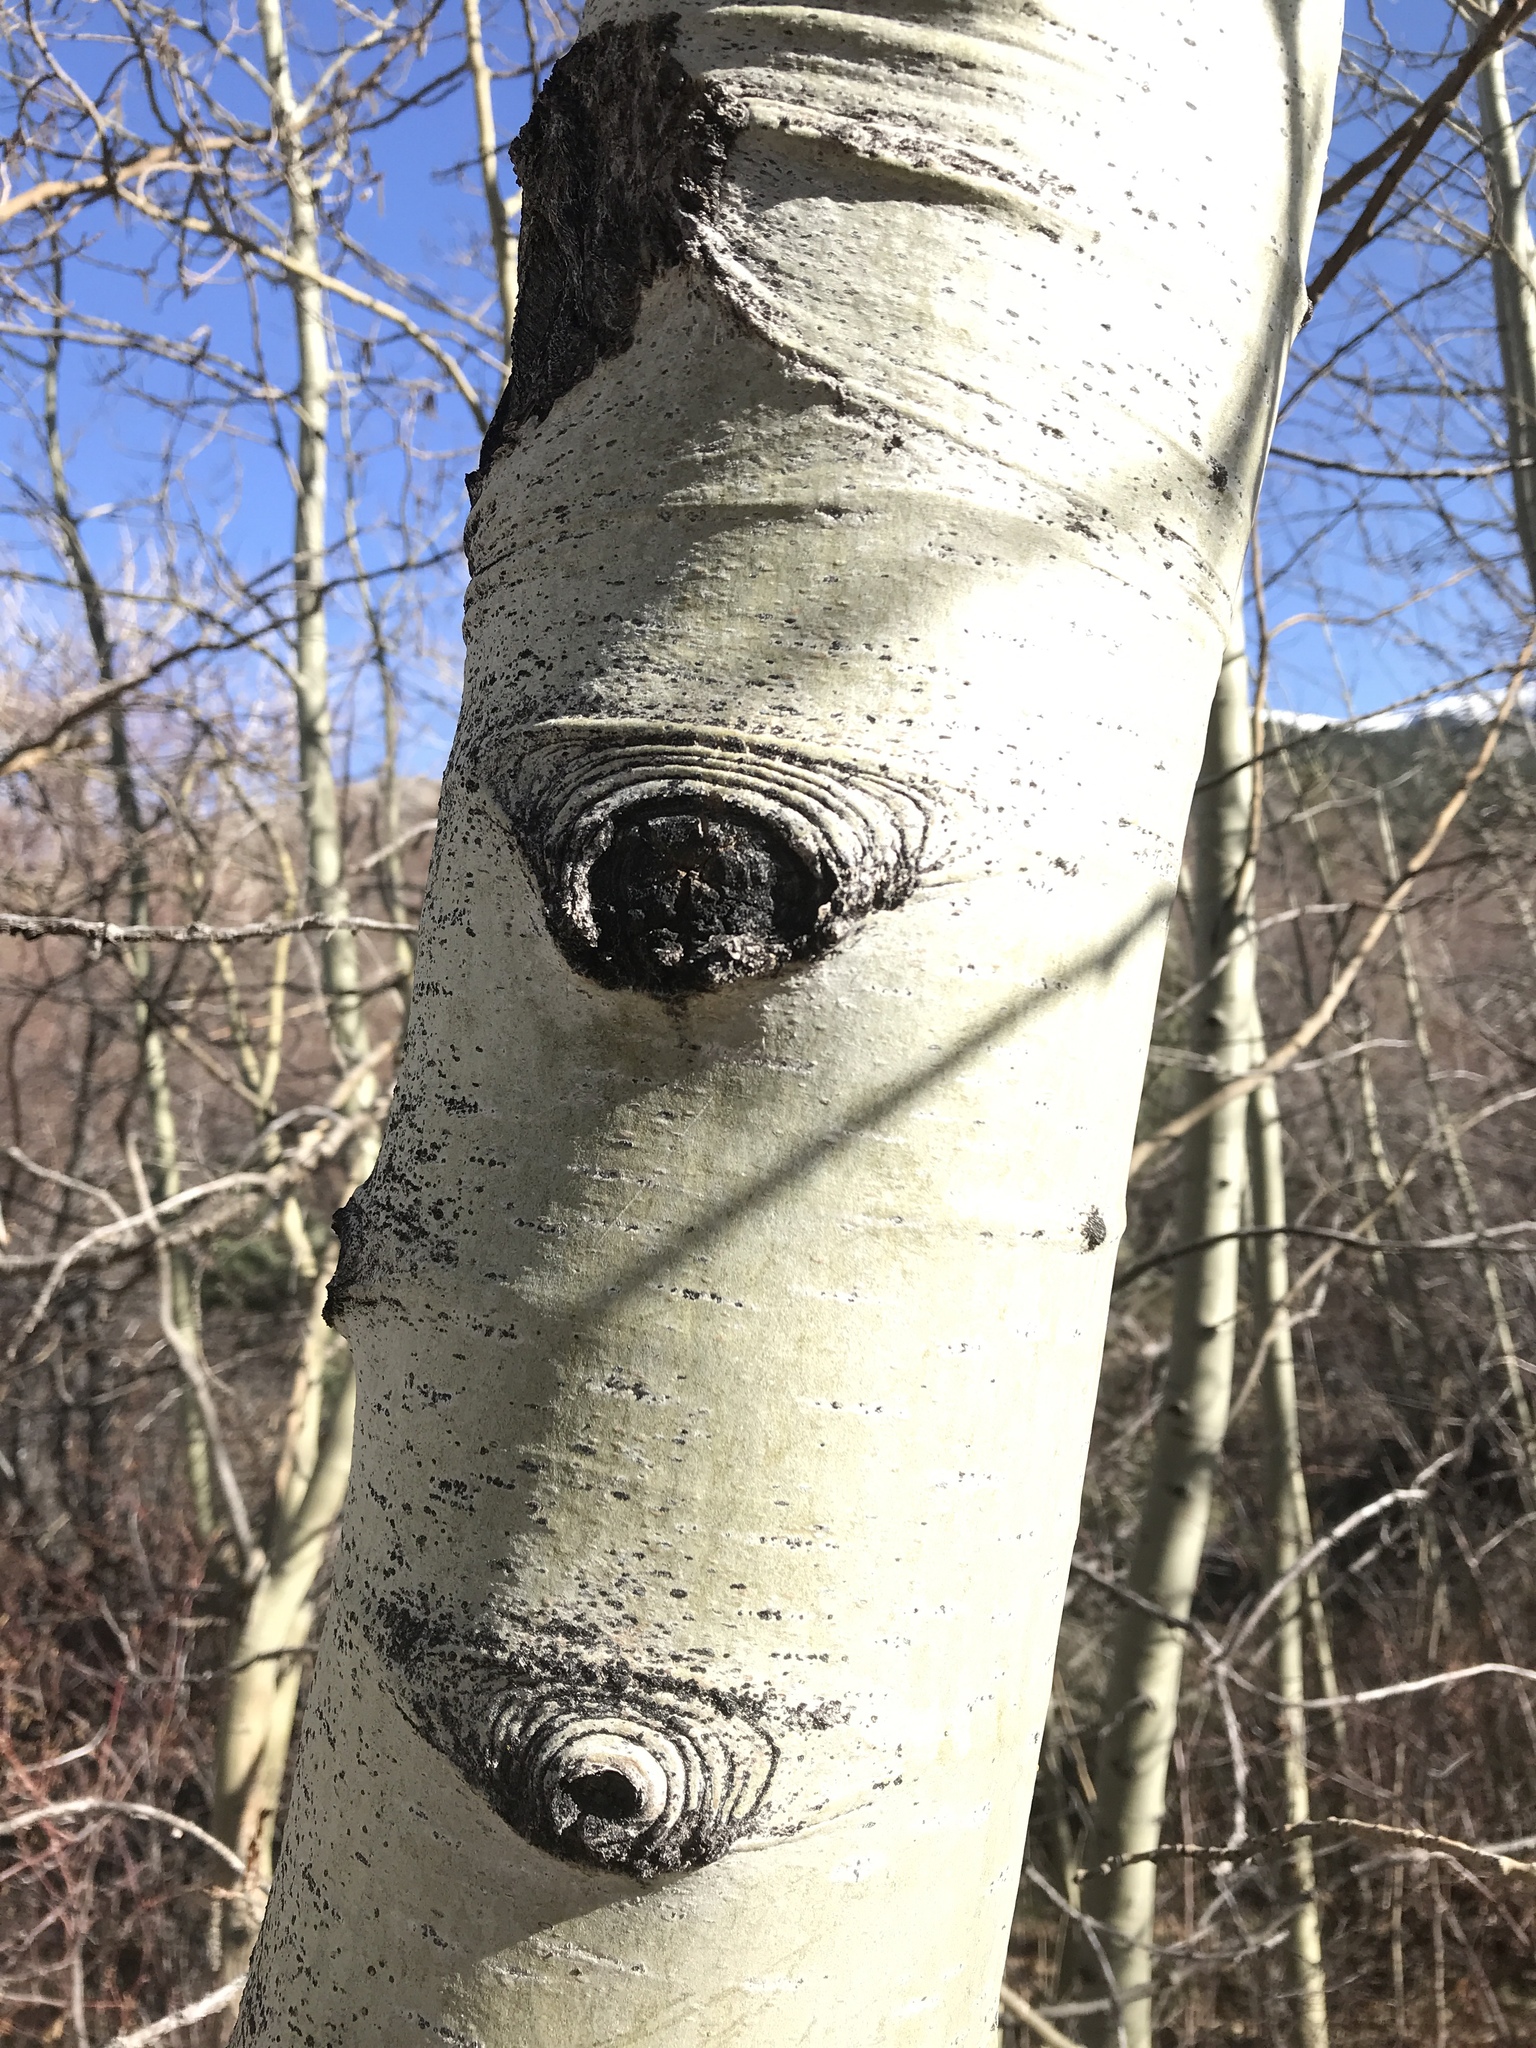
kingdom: Plantae
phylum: Tracheophyta
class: Magnoliopsida
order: Malpighiales
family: Salicaceae
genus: Populus
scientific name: Populus tremuloides
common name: Quaking aspen
